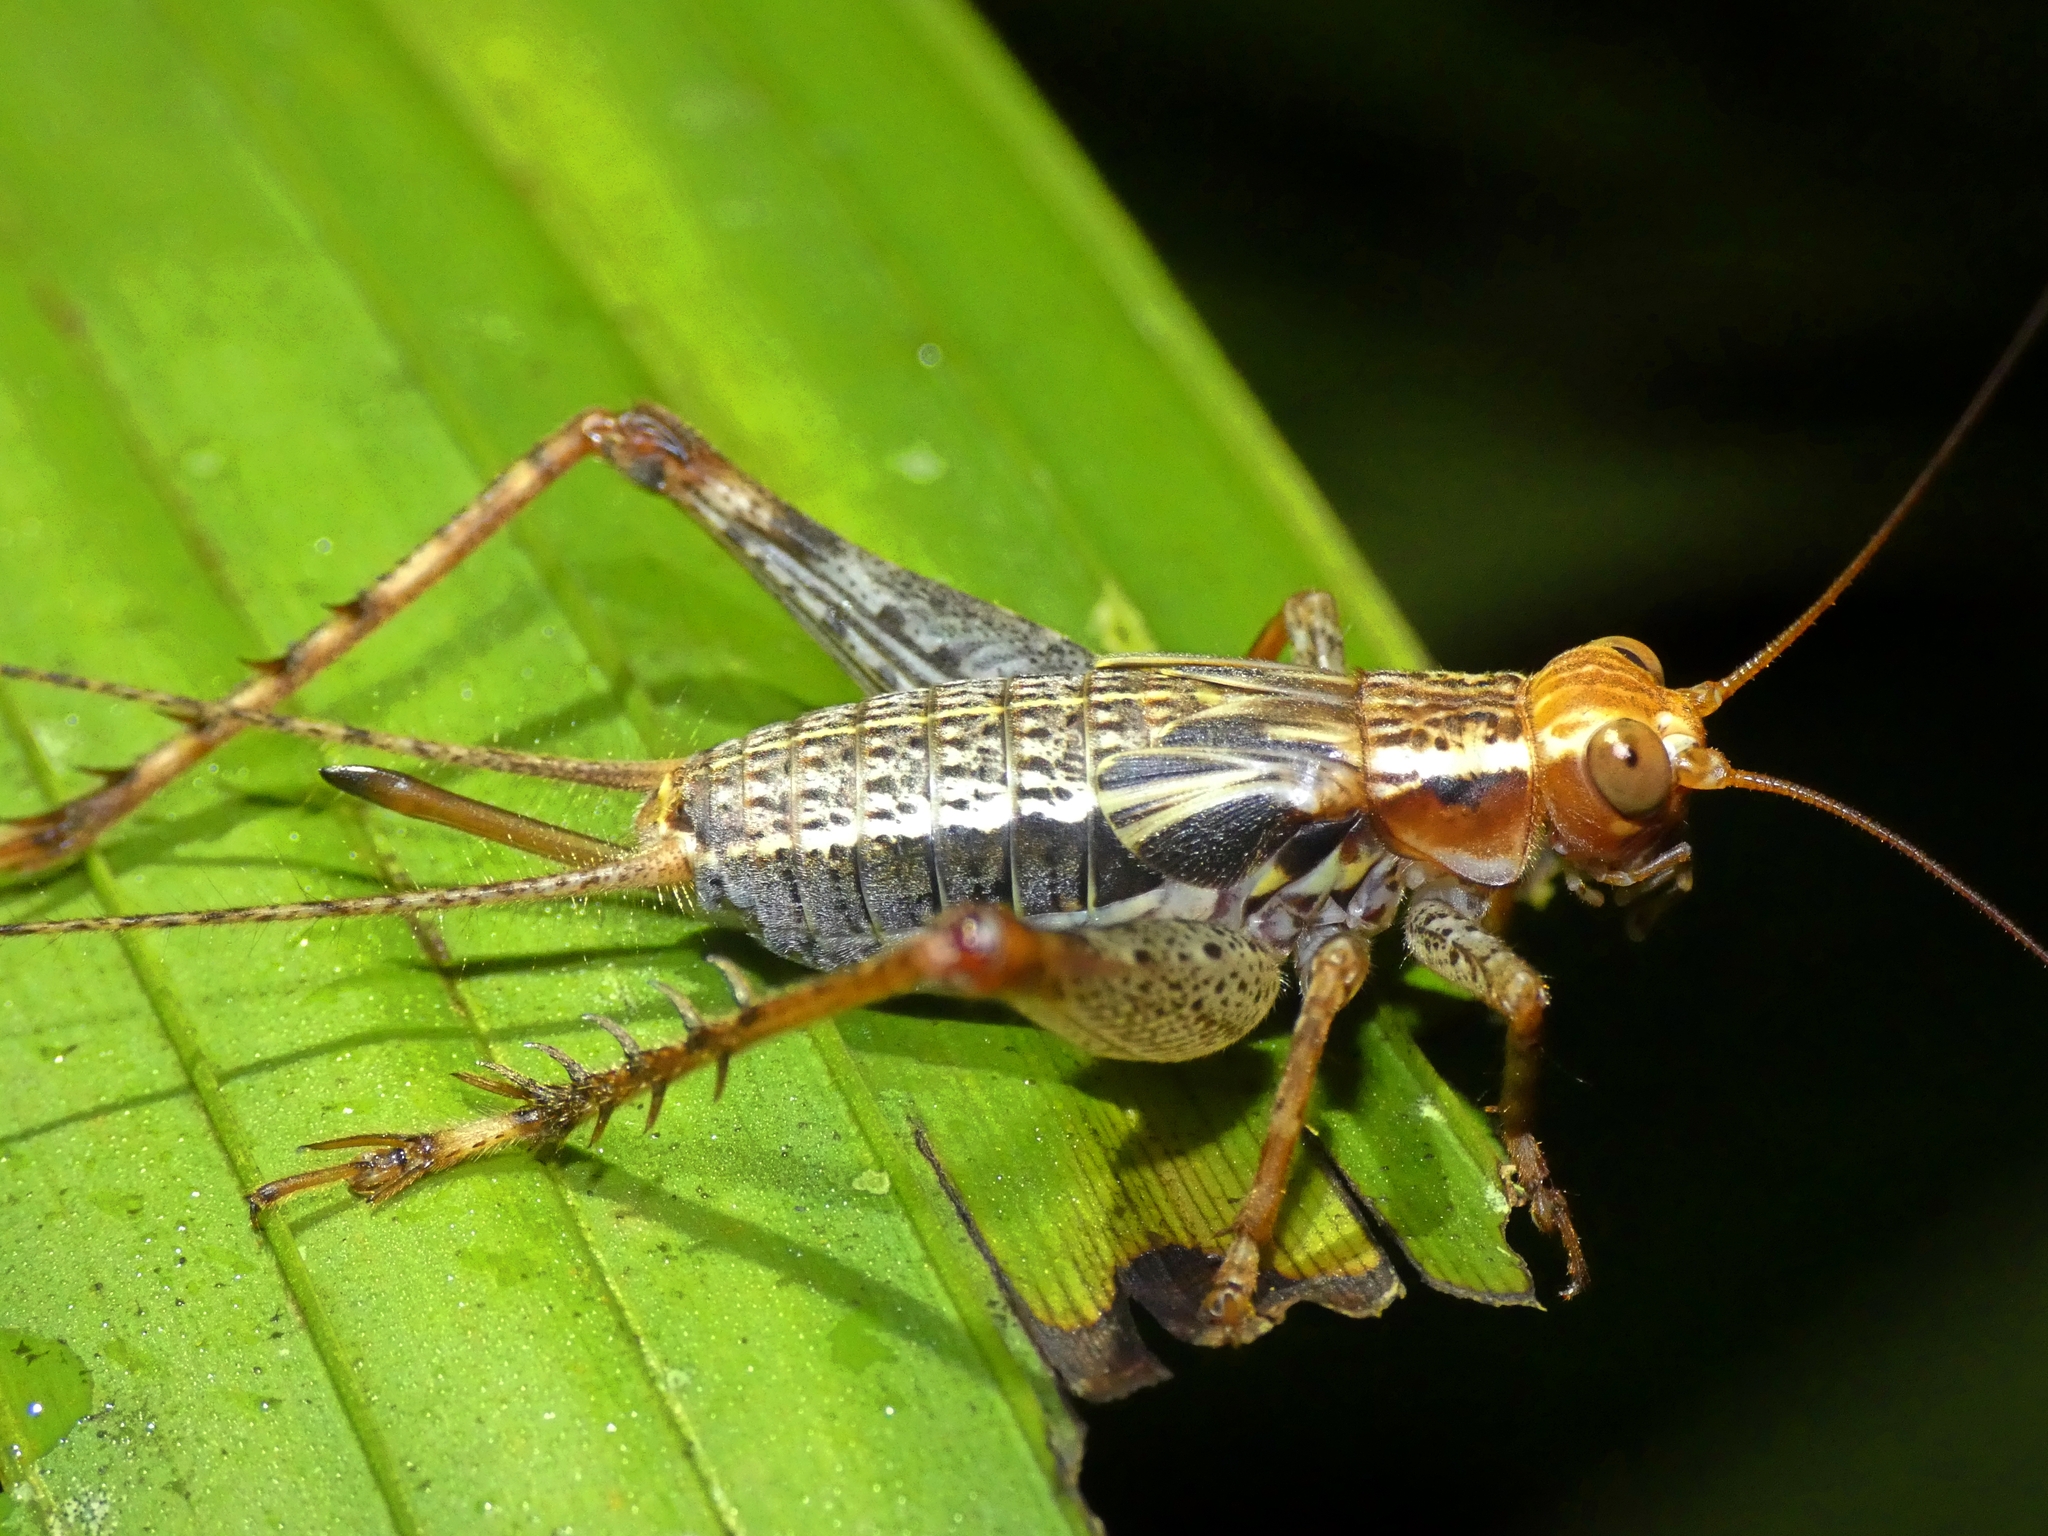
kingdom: Animalia
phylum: Arthropoda
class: Insecta
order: Orthoptera
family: Gryllidae
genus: Cardiodactylus
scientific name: Cardiodactylus novaeguineae
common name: Sad cricket
